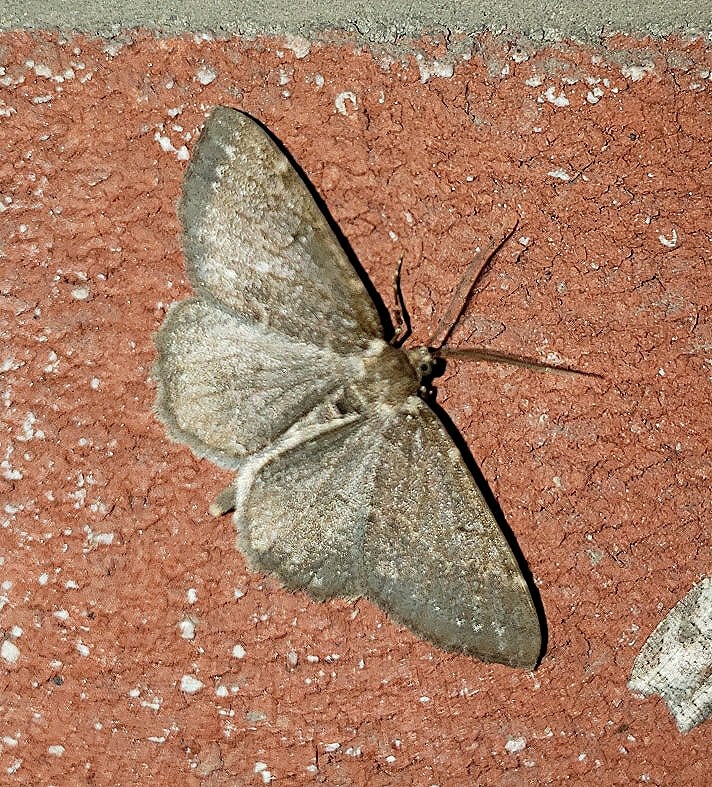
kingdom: Animalia
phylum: Arthropoda
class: Insecta
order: Lepidoptera
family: Geometridae
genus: Ectropis
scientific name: Ectropis crepuscularia
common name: Engrailed
